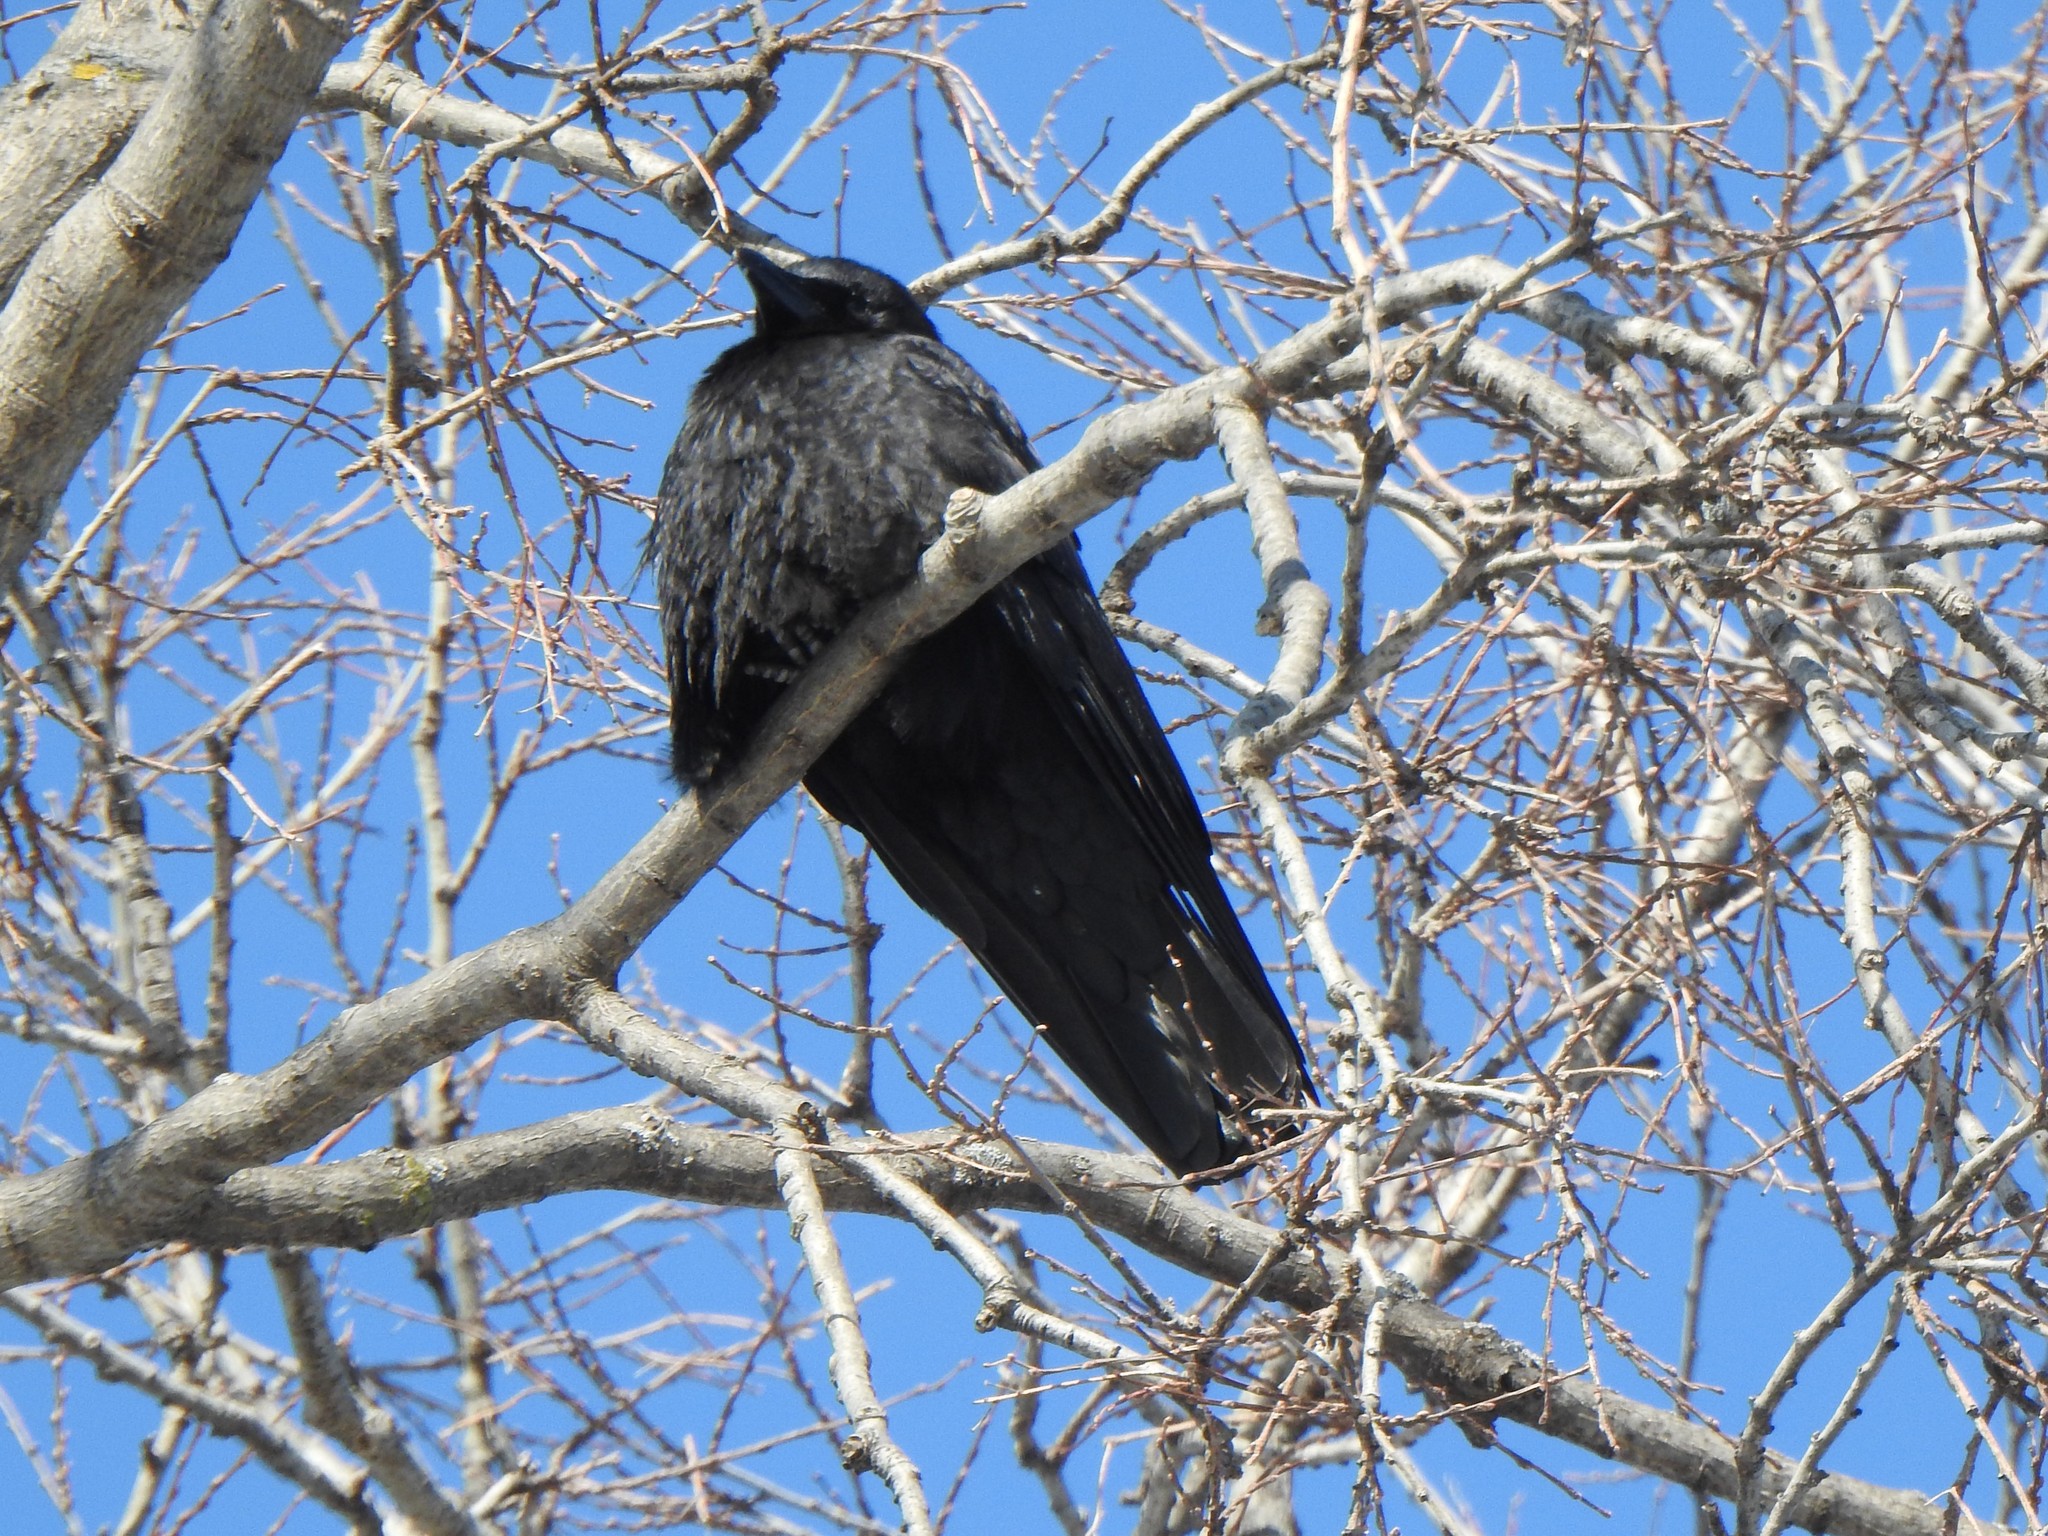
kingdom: Animalia
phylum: Chordata
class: Aves
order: Passeriformes
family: Corvidae
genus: Corvus
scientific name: Corvus brachyrhynchos
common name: American crow
